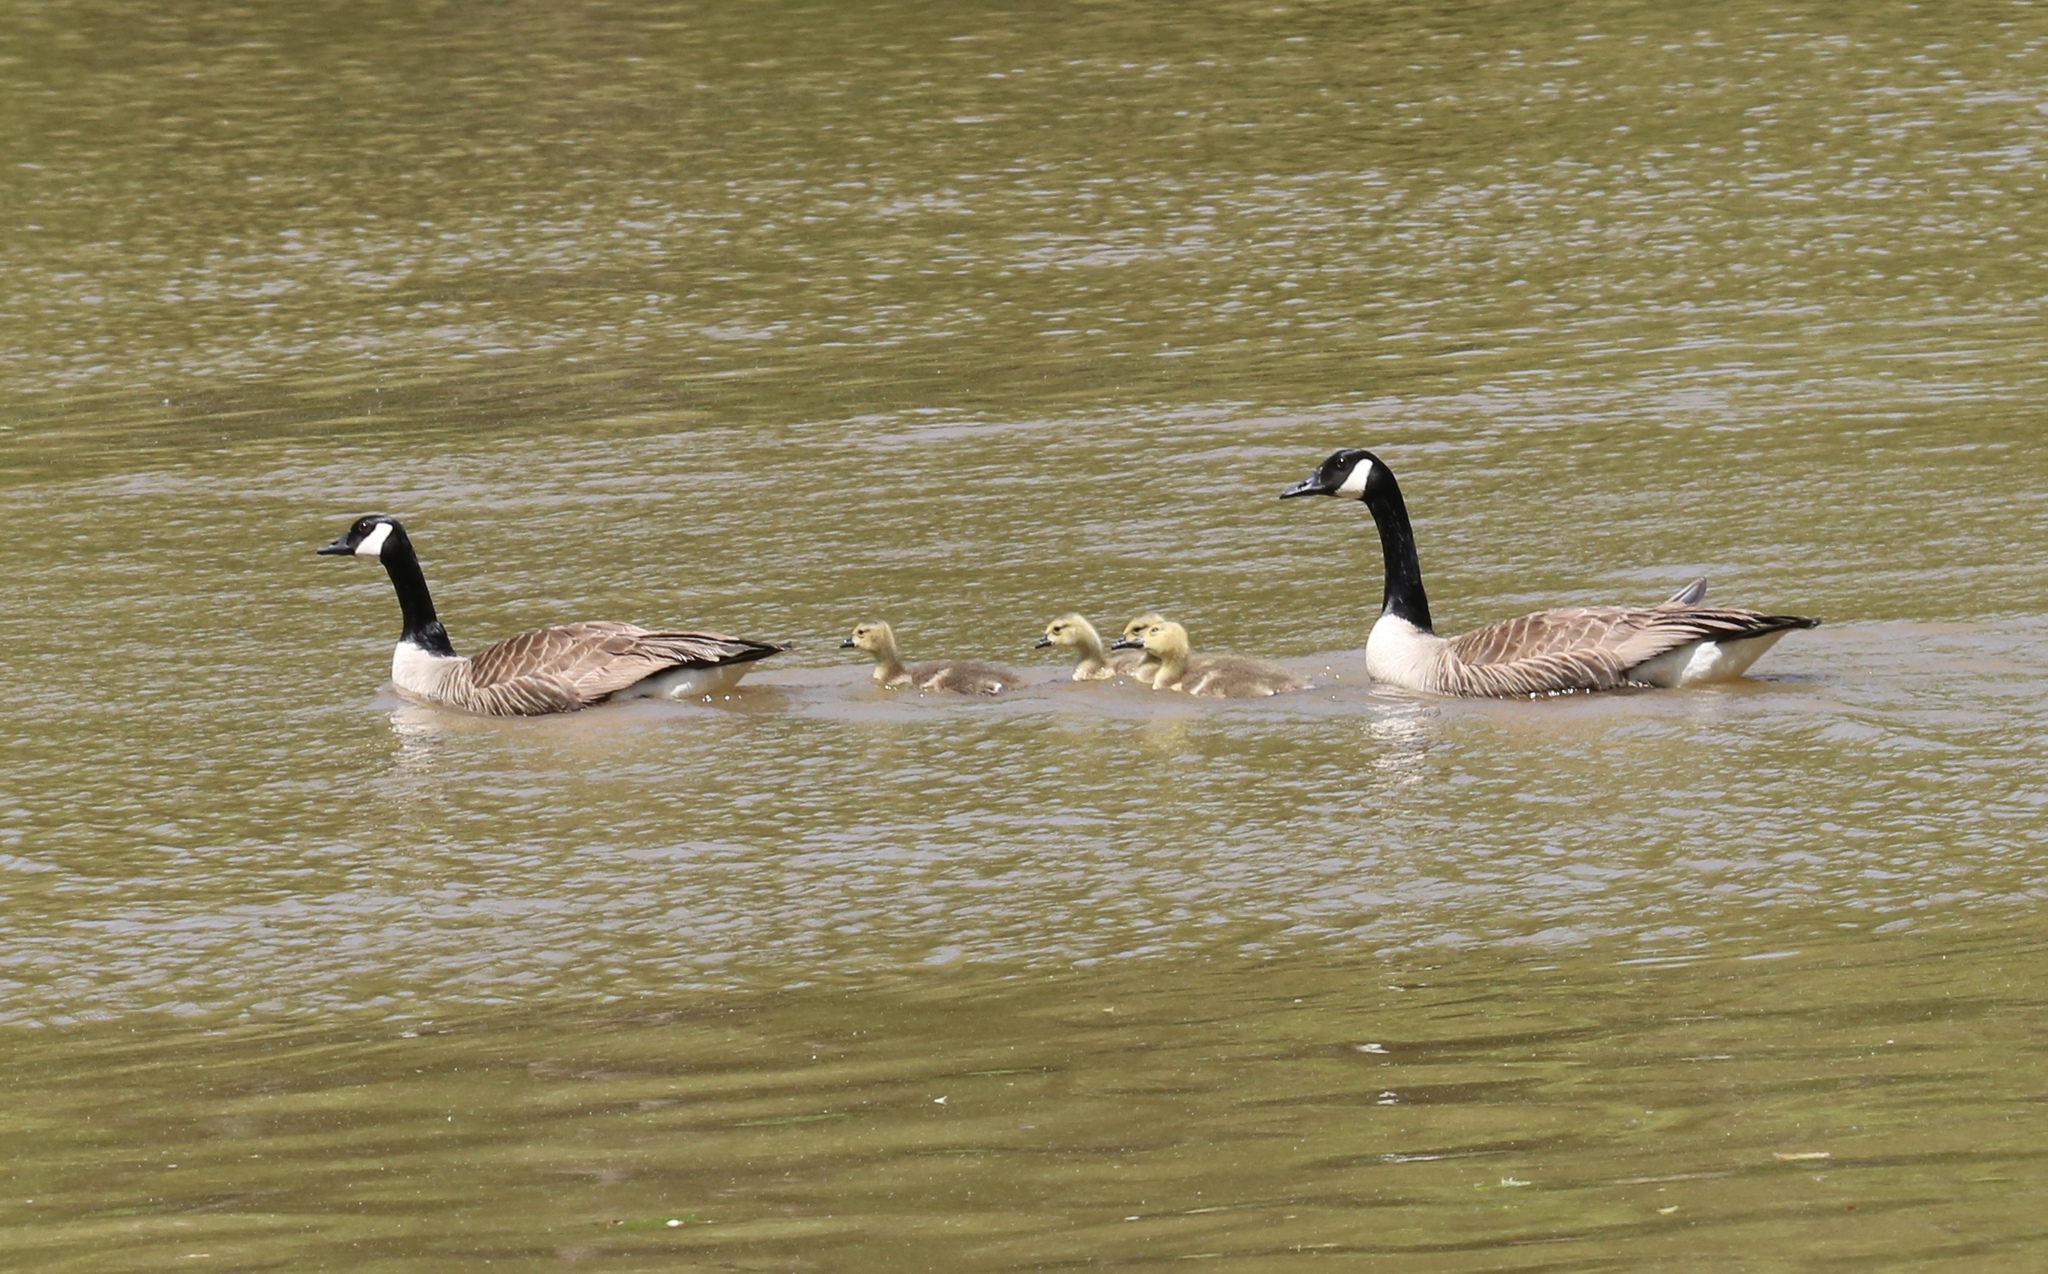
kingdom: Animalia
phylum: Chordata
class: Aves
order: Anseriformes
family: Anatidae
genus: Branta
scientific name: Branta canadensis
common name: Canada goose
